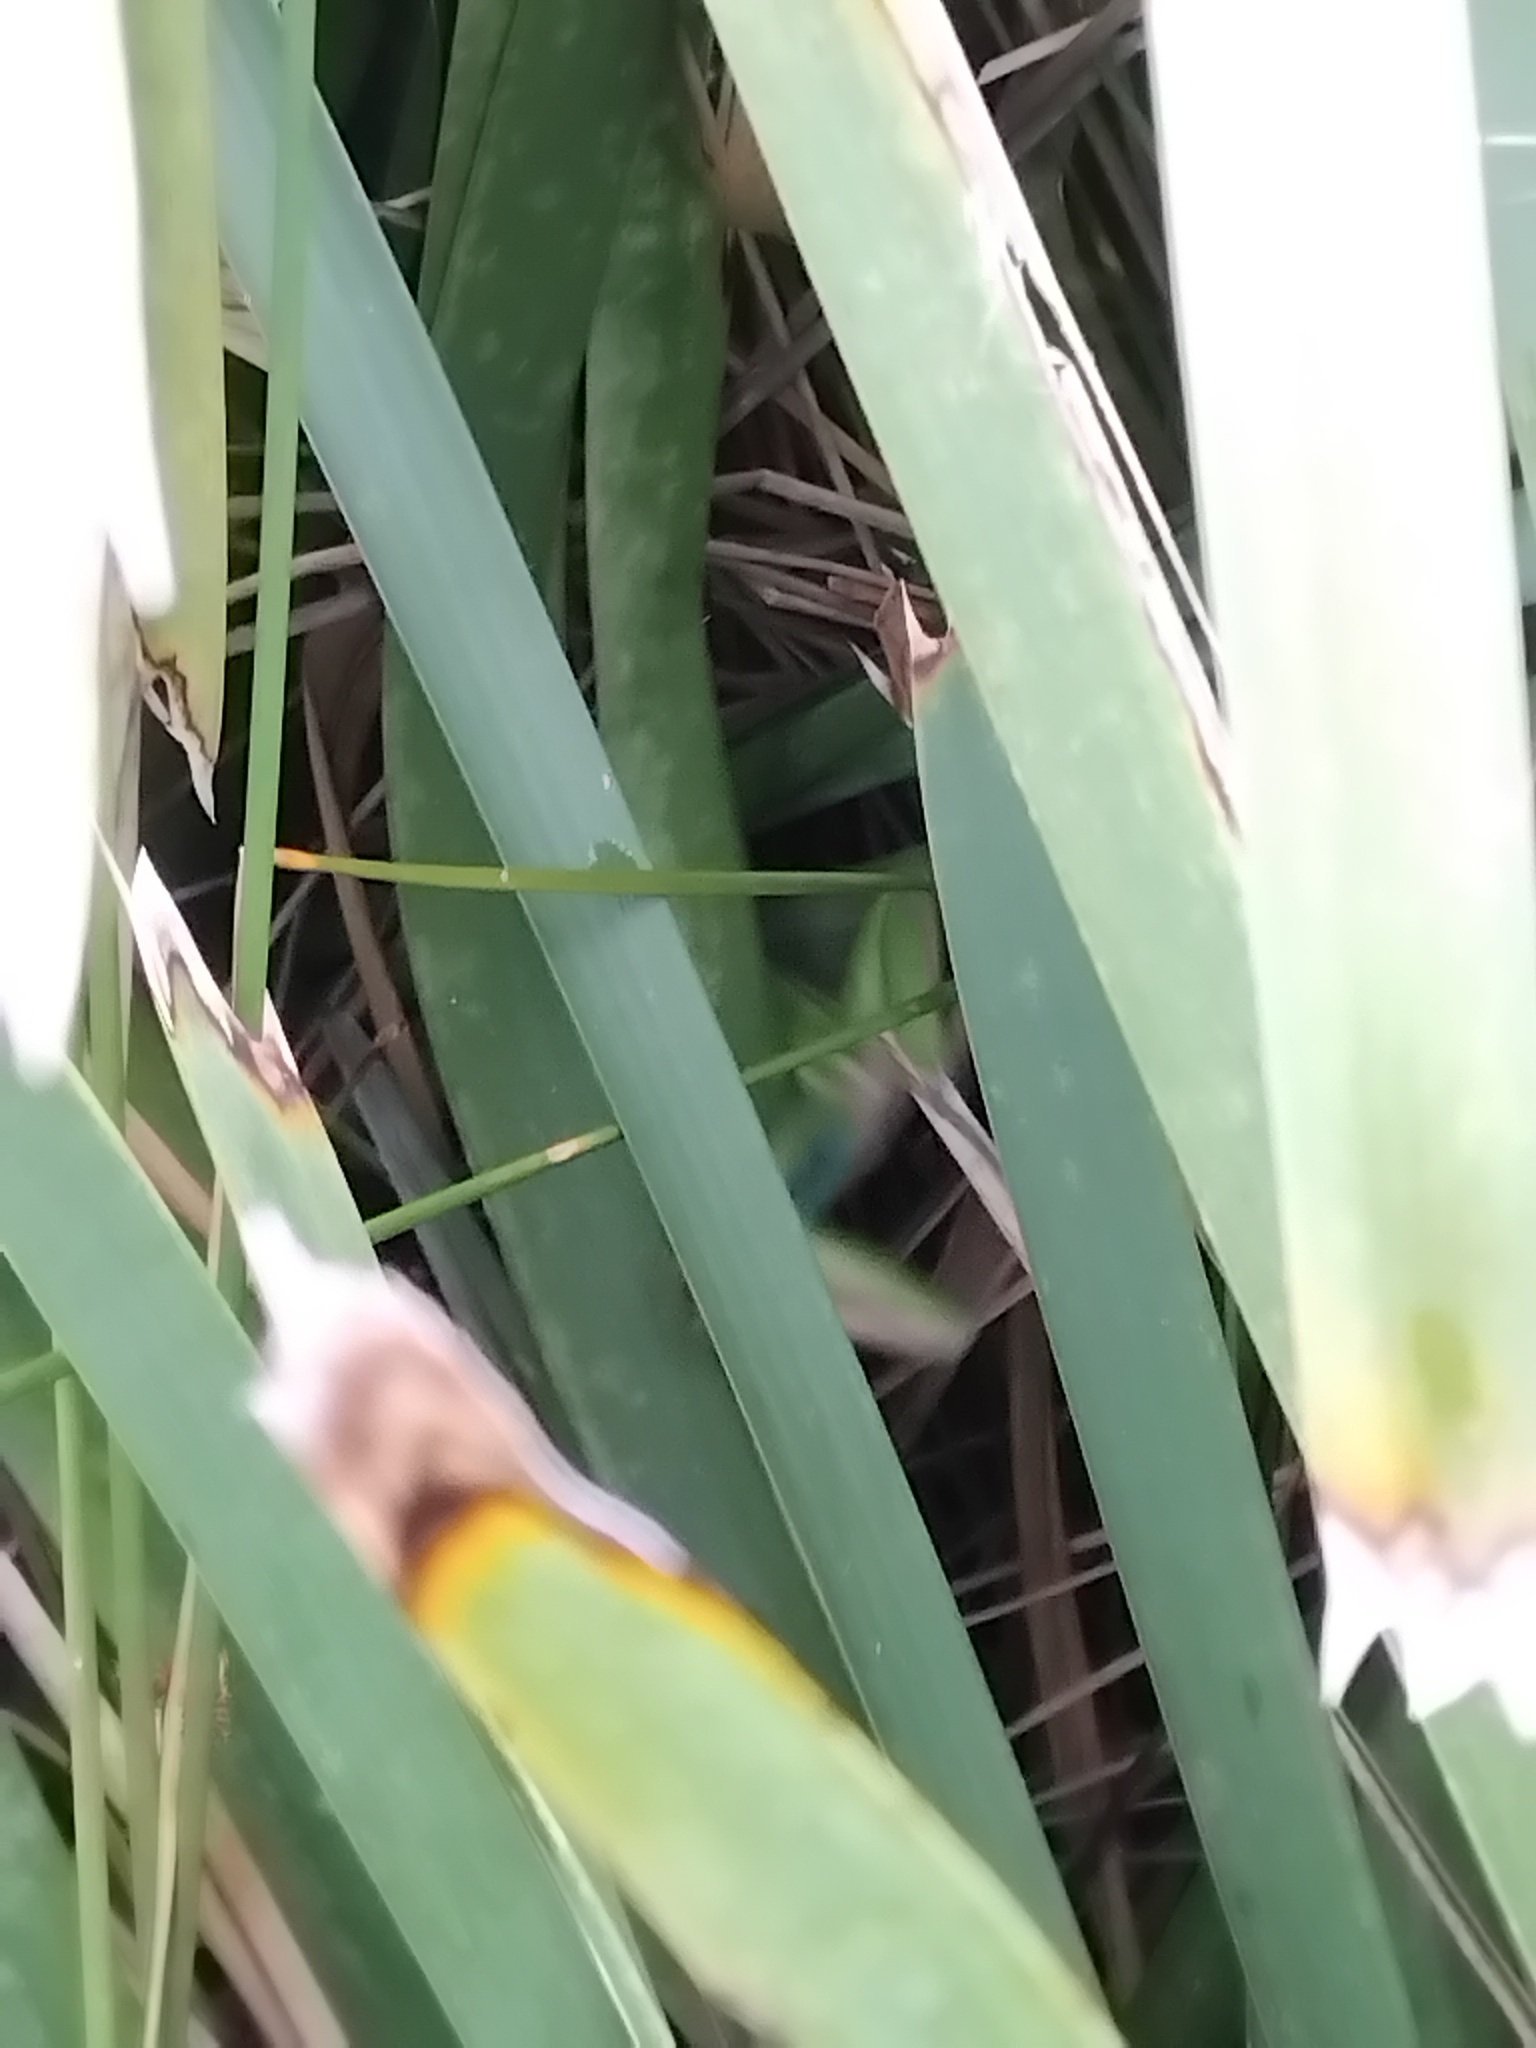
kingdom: Animalia
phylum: Chordata
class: Amphibia
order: Anura
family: Pelodryadidae
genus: Ranoidea
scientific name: Ranoidea aurea
